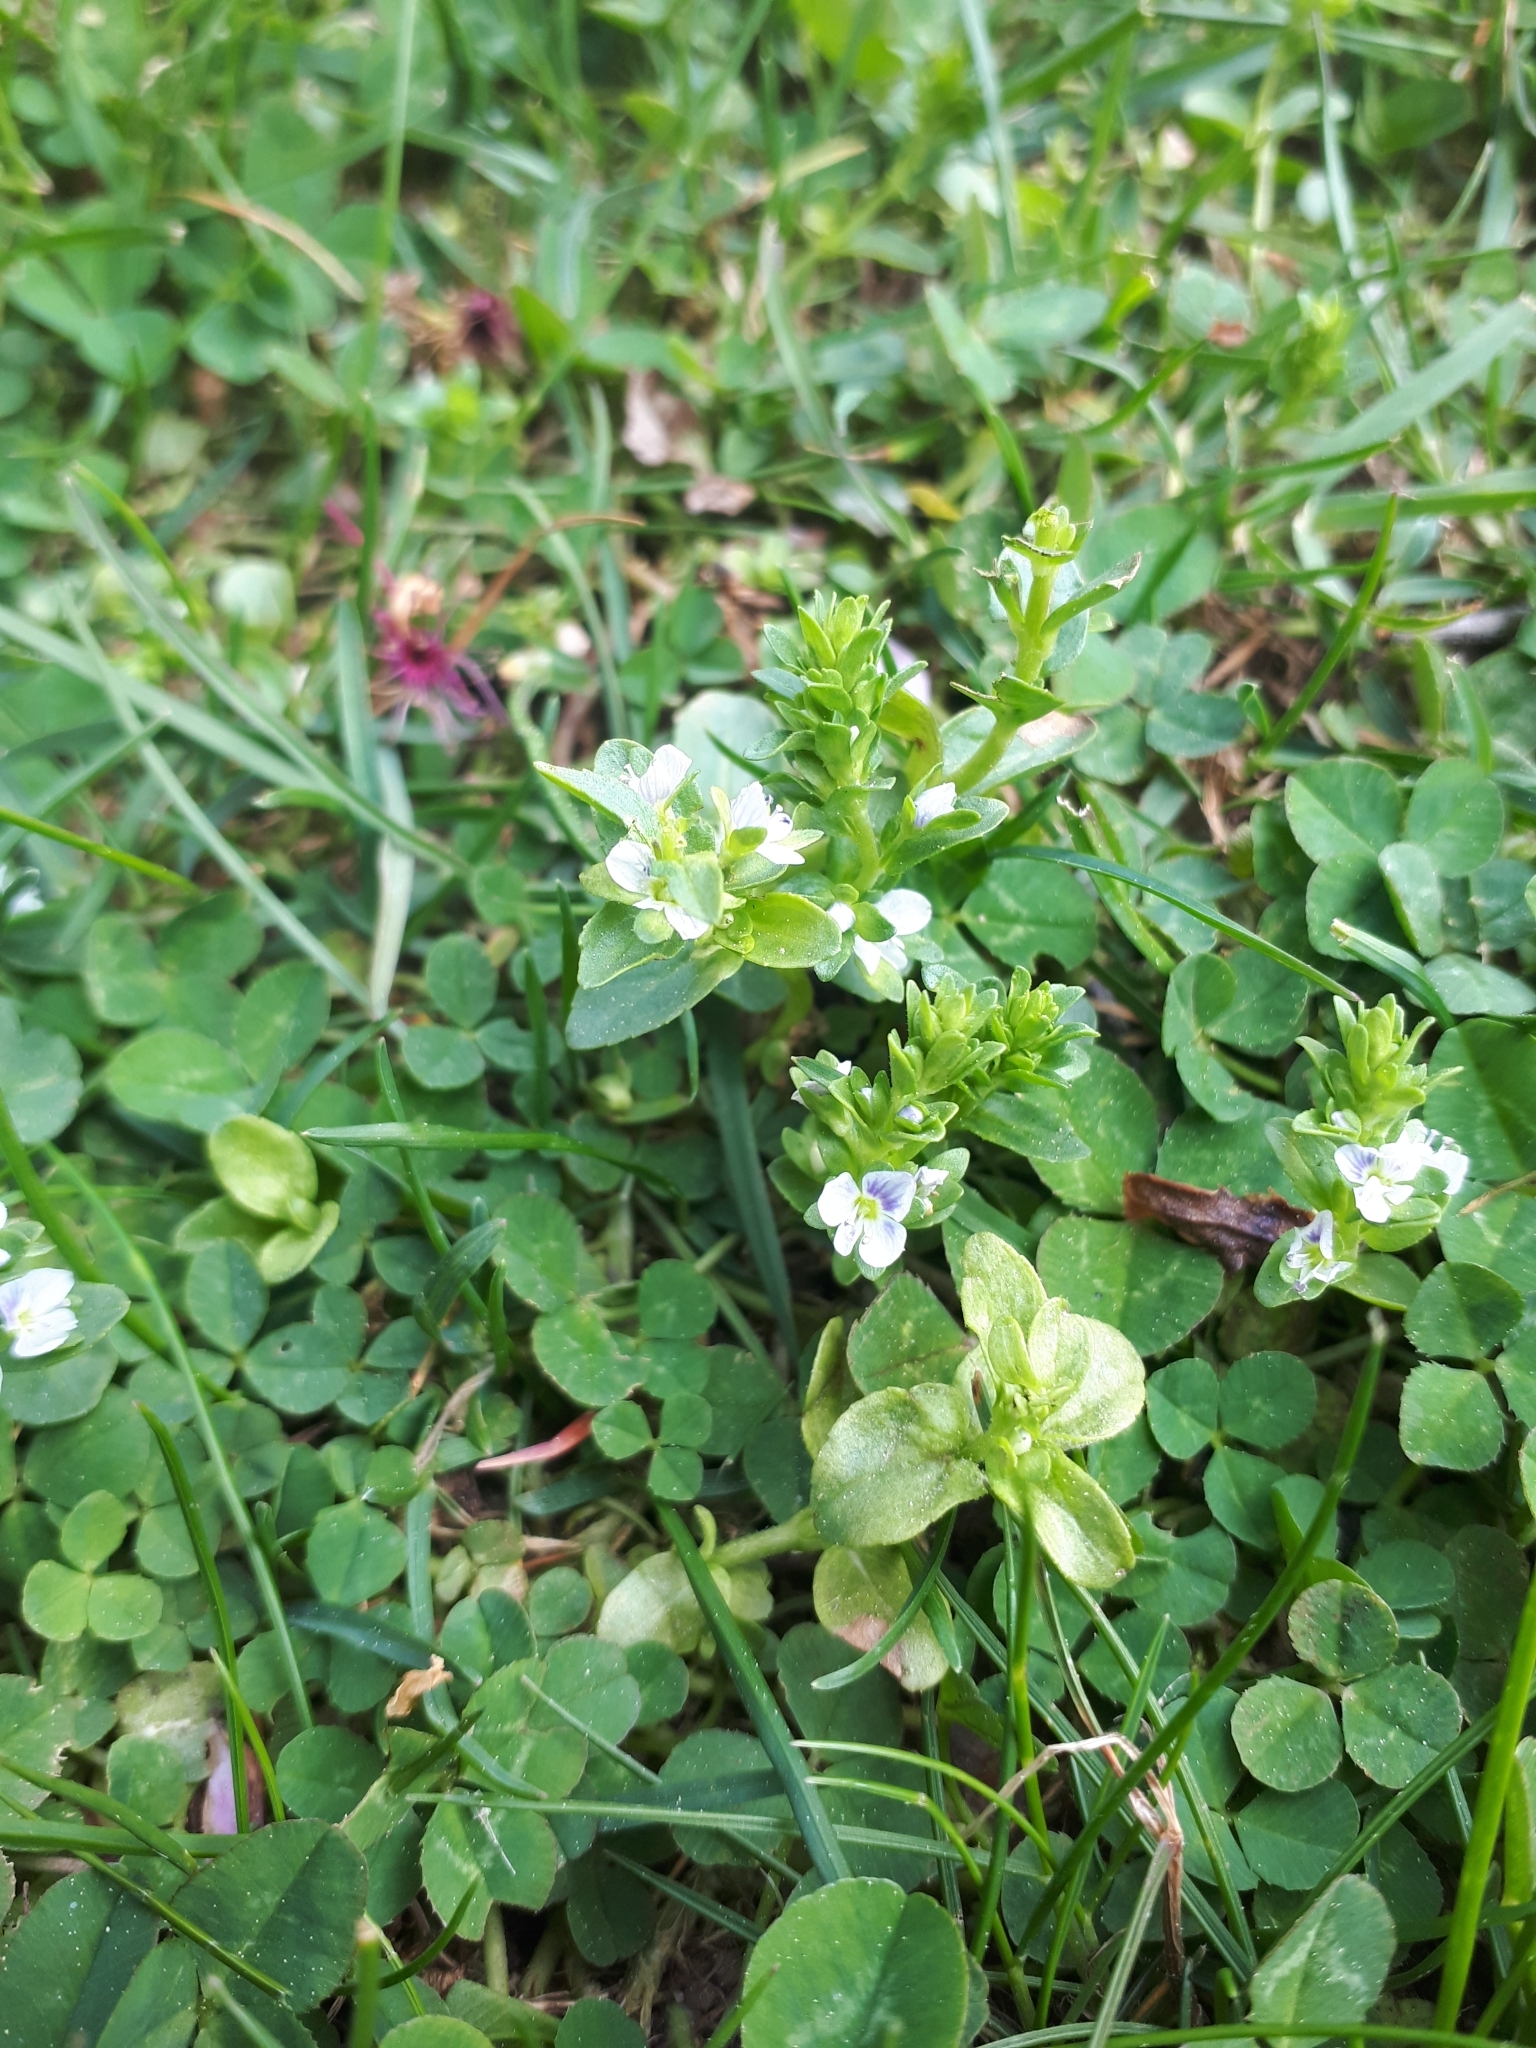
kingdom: Plantae
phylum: Tracheophyta
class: Magnoliopsida
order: Lamiales
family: Plantaginaceae
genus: Veronica
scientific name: Veronica serpyllifolia
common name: Thyme-leaved speedwell
